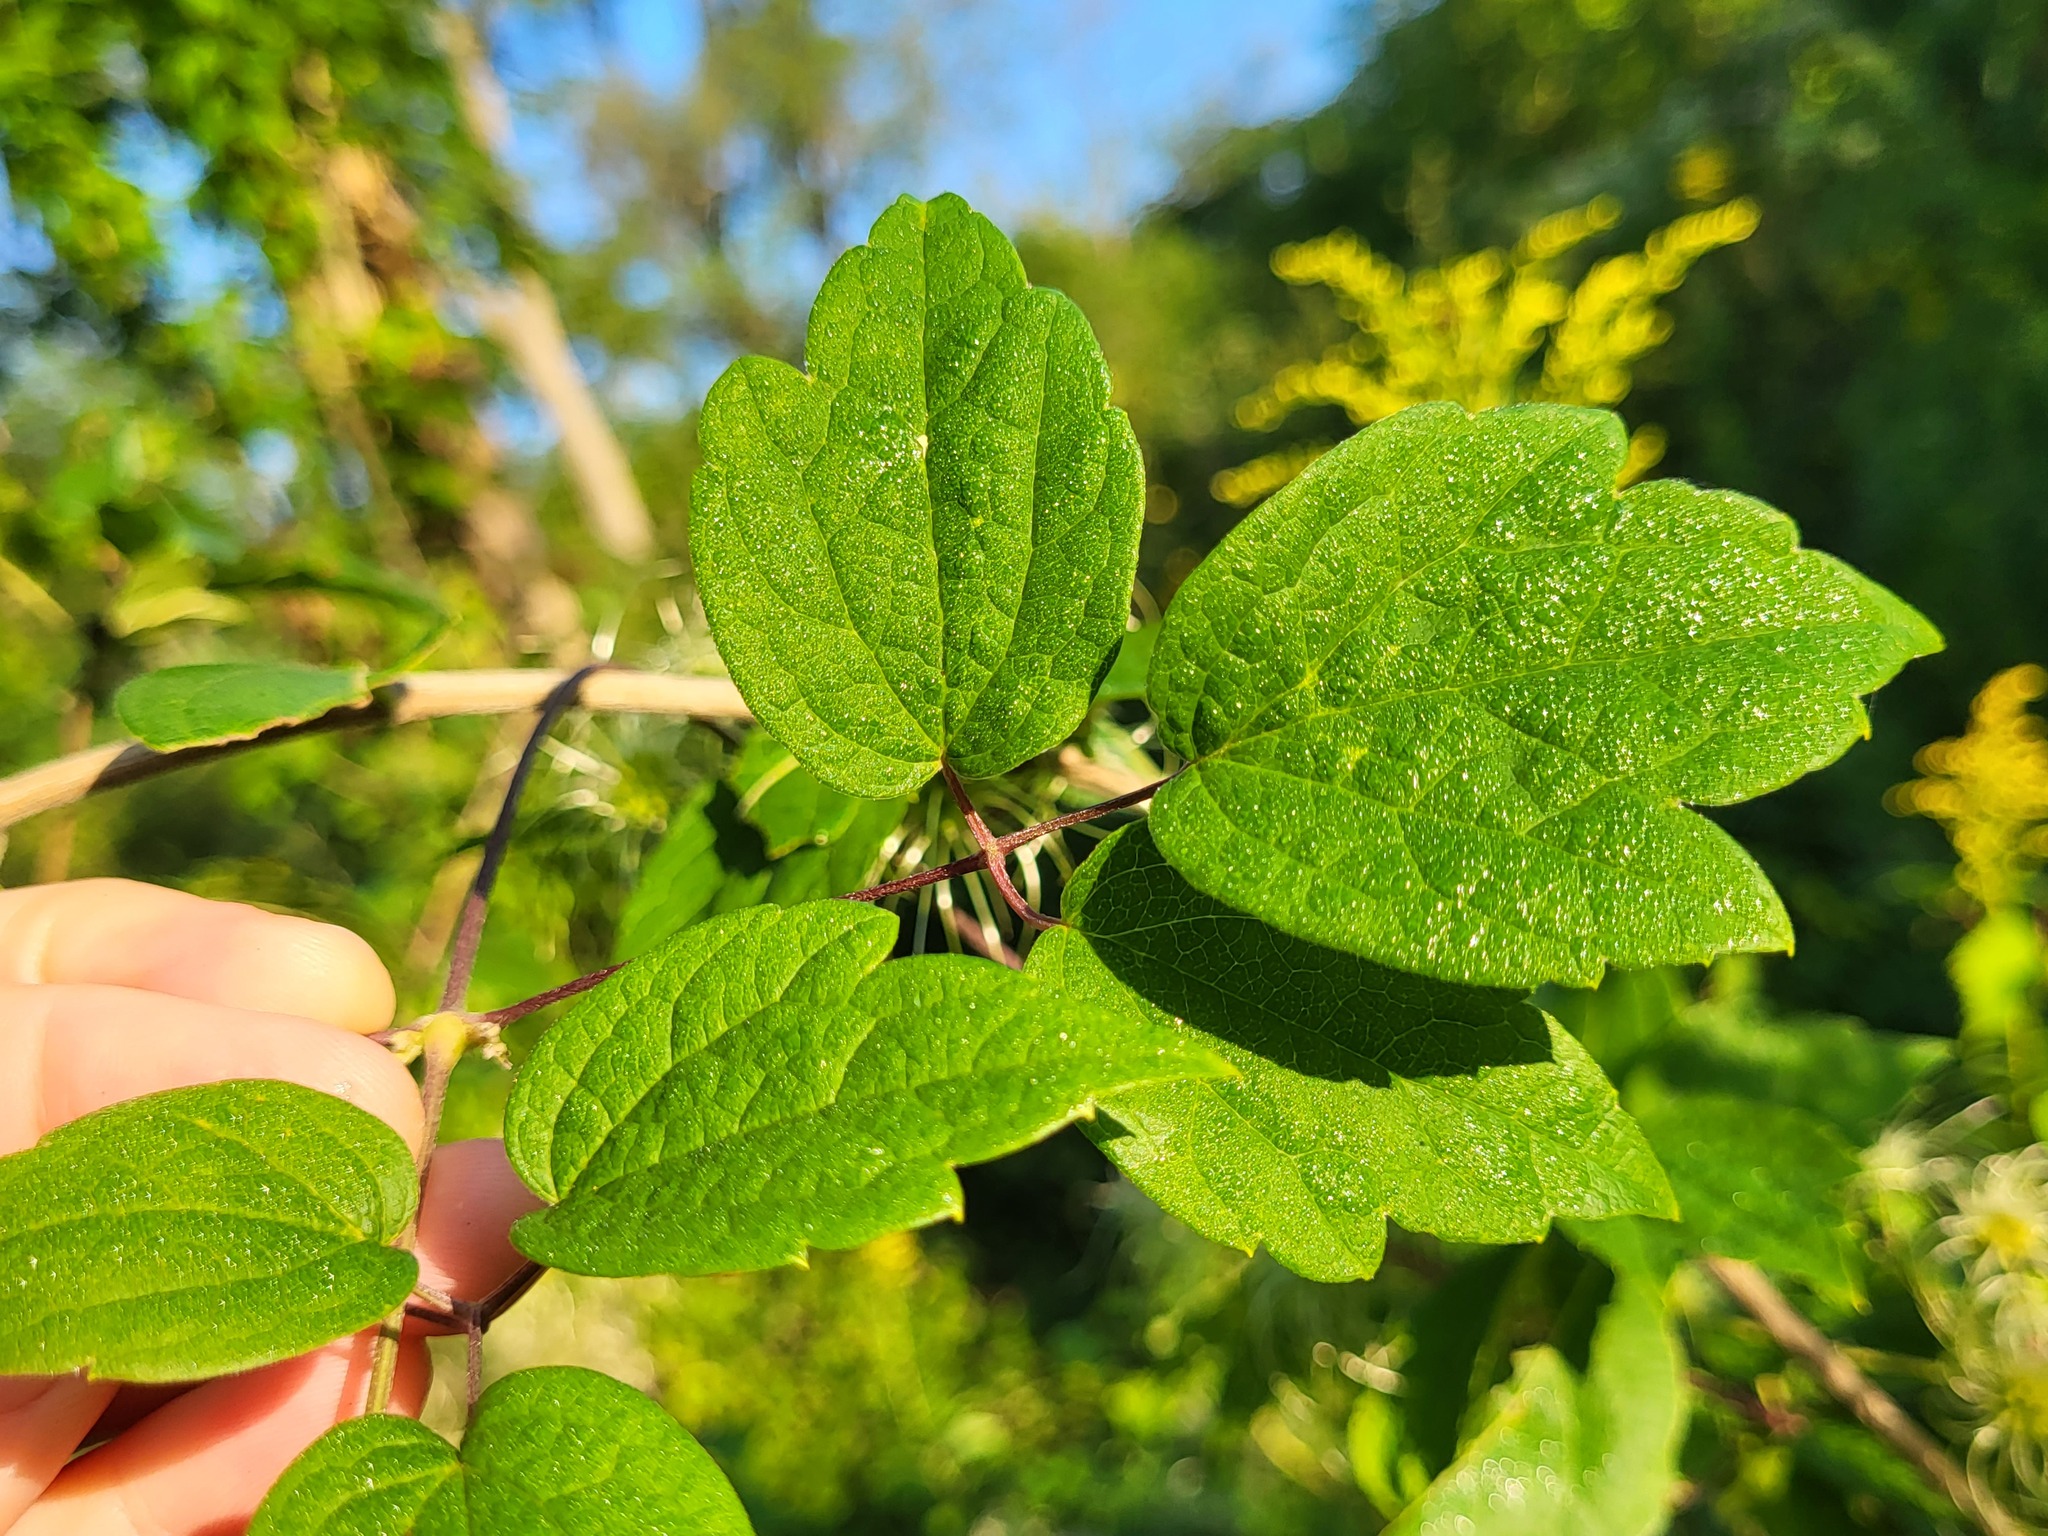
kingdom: Plantae
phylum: Tracheophyta
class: Magnoliopsida
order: Ranunculales
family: Ranunculaceae
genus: Clematis
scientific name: Clematis virginiana
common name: Virgin's-bower
